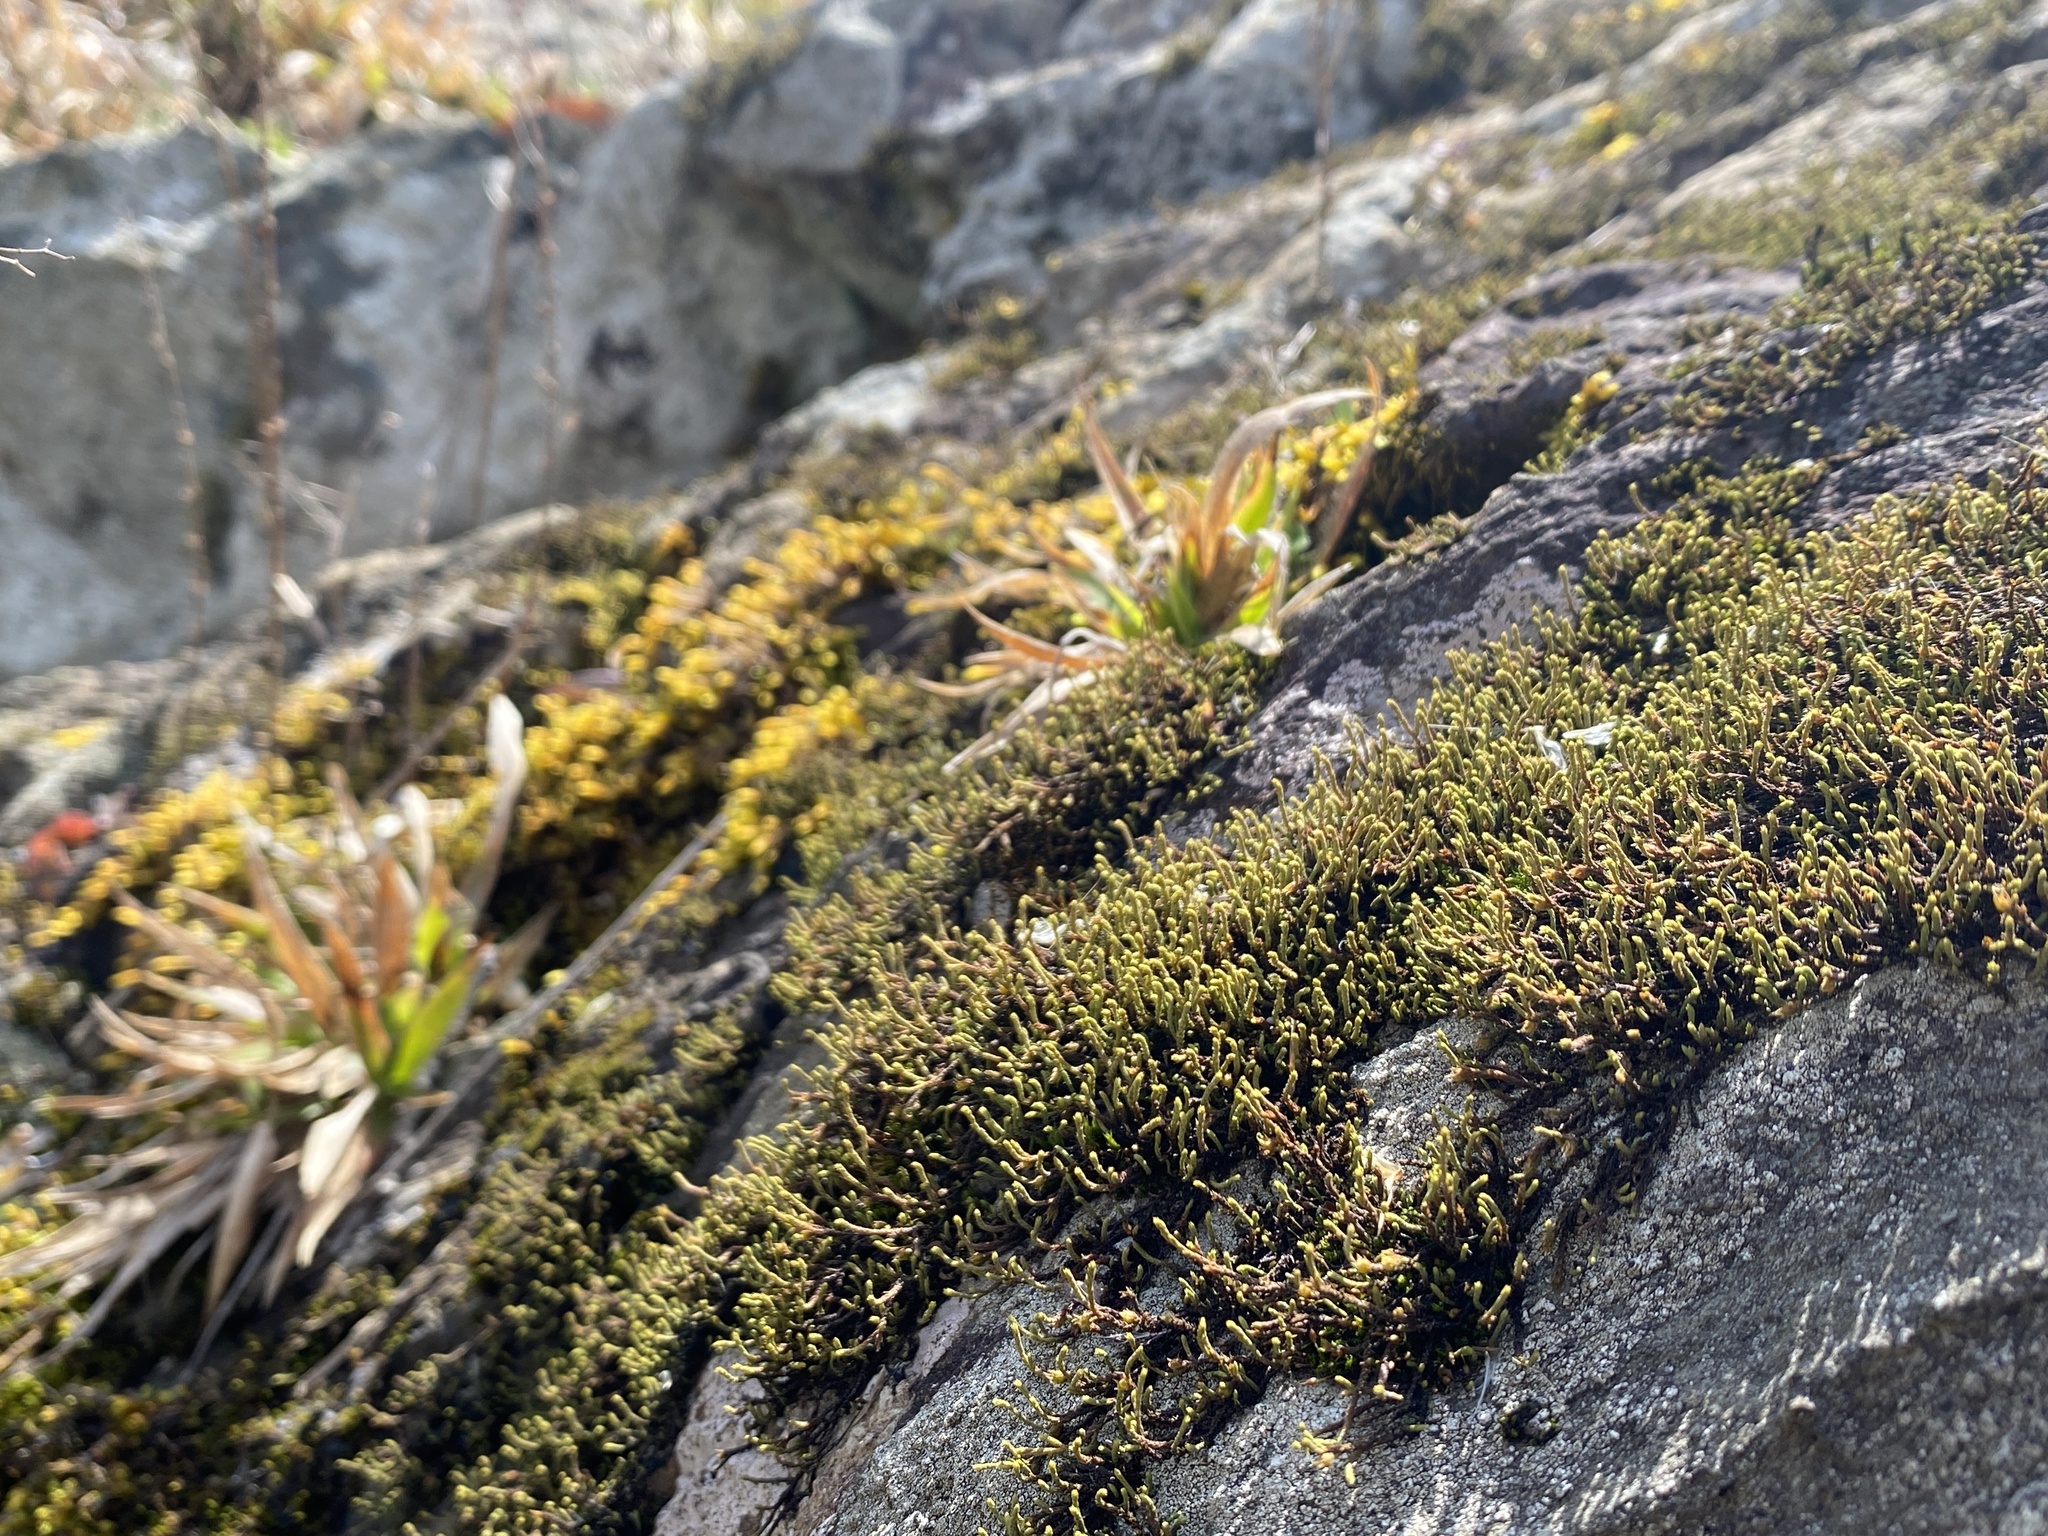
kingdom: Plantae
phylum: Bryophyta
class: Bryopsida
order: Hedwigiales
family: Hedwigiaceae
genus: Hedwigia
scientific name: Hedwigia ciliata
